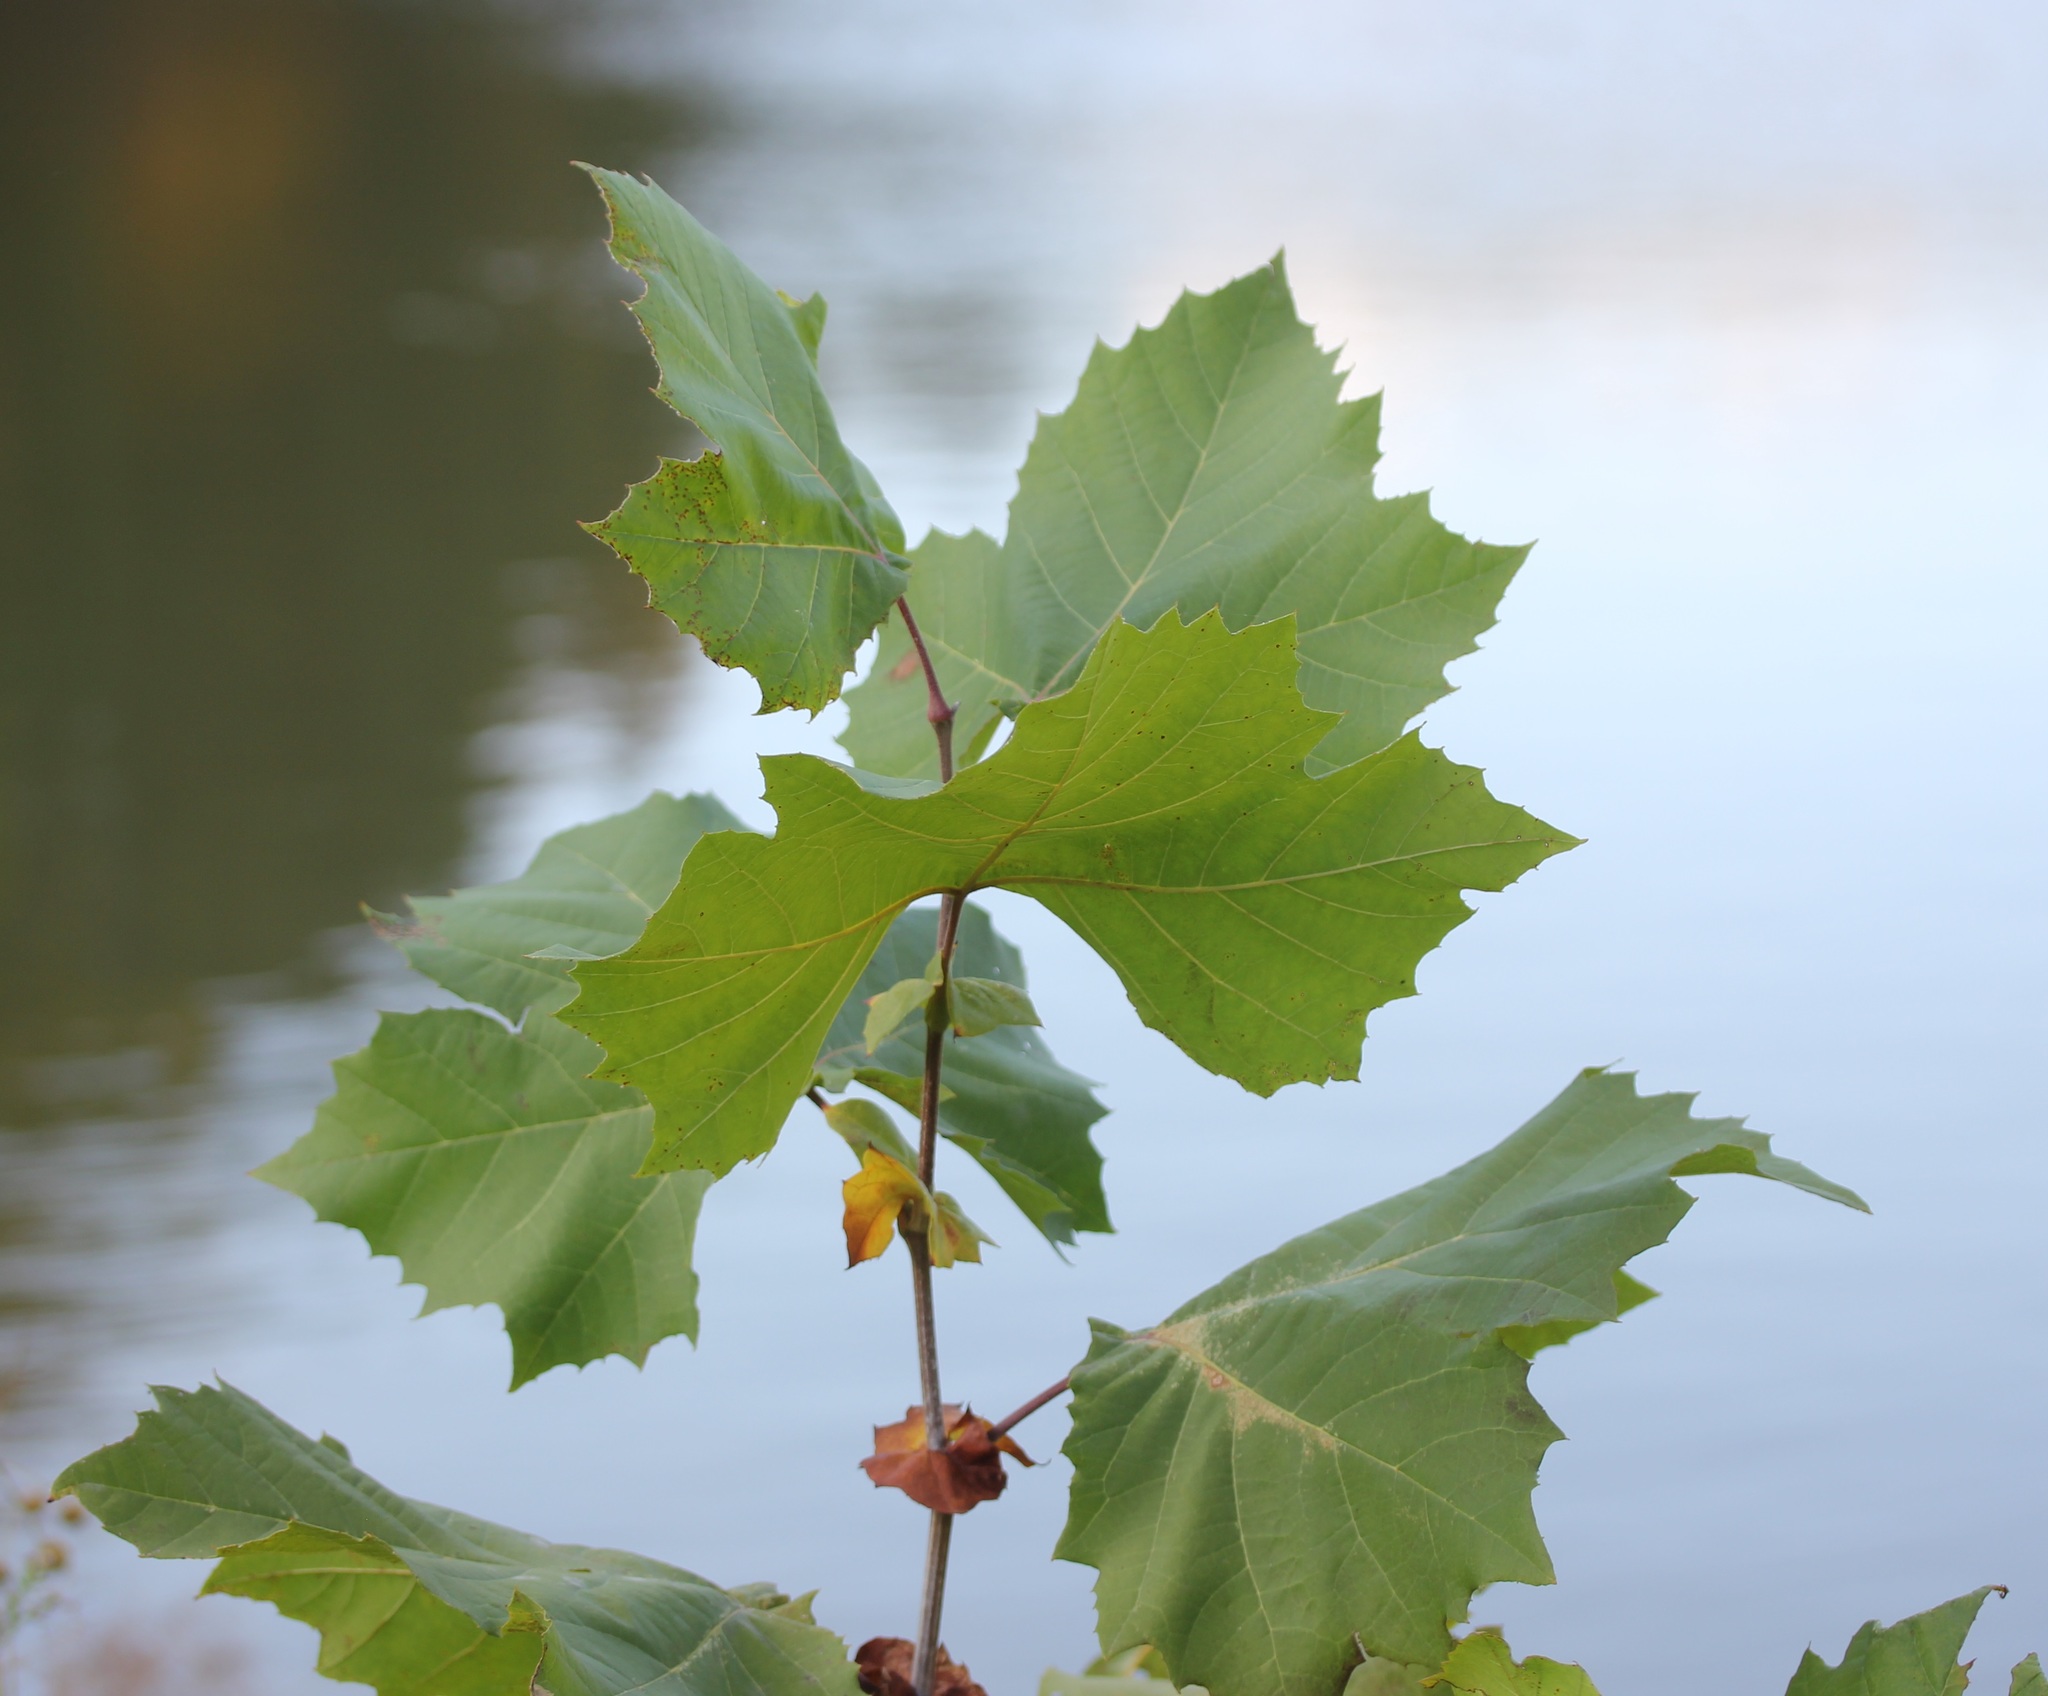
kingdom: Plantae
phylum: Tracheophyta
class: Magnoliopsida
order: Proteales
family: Platanaceae
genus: Platanus
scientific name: Platanus occidentalis
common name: American sycamore
